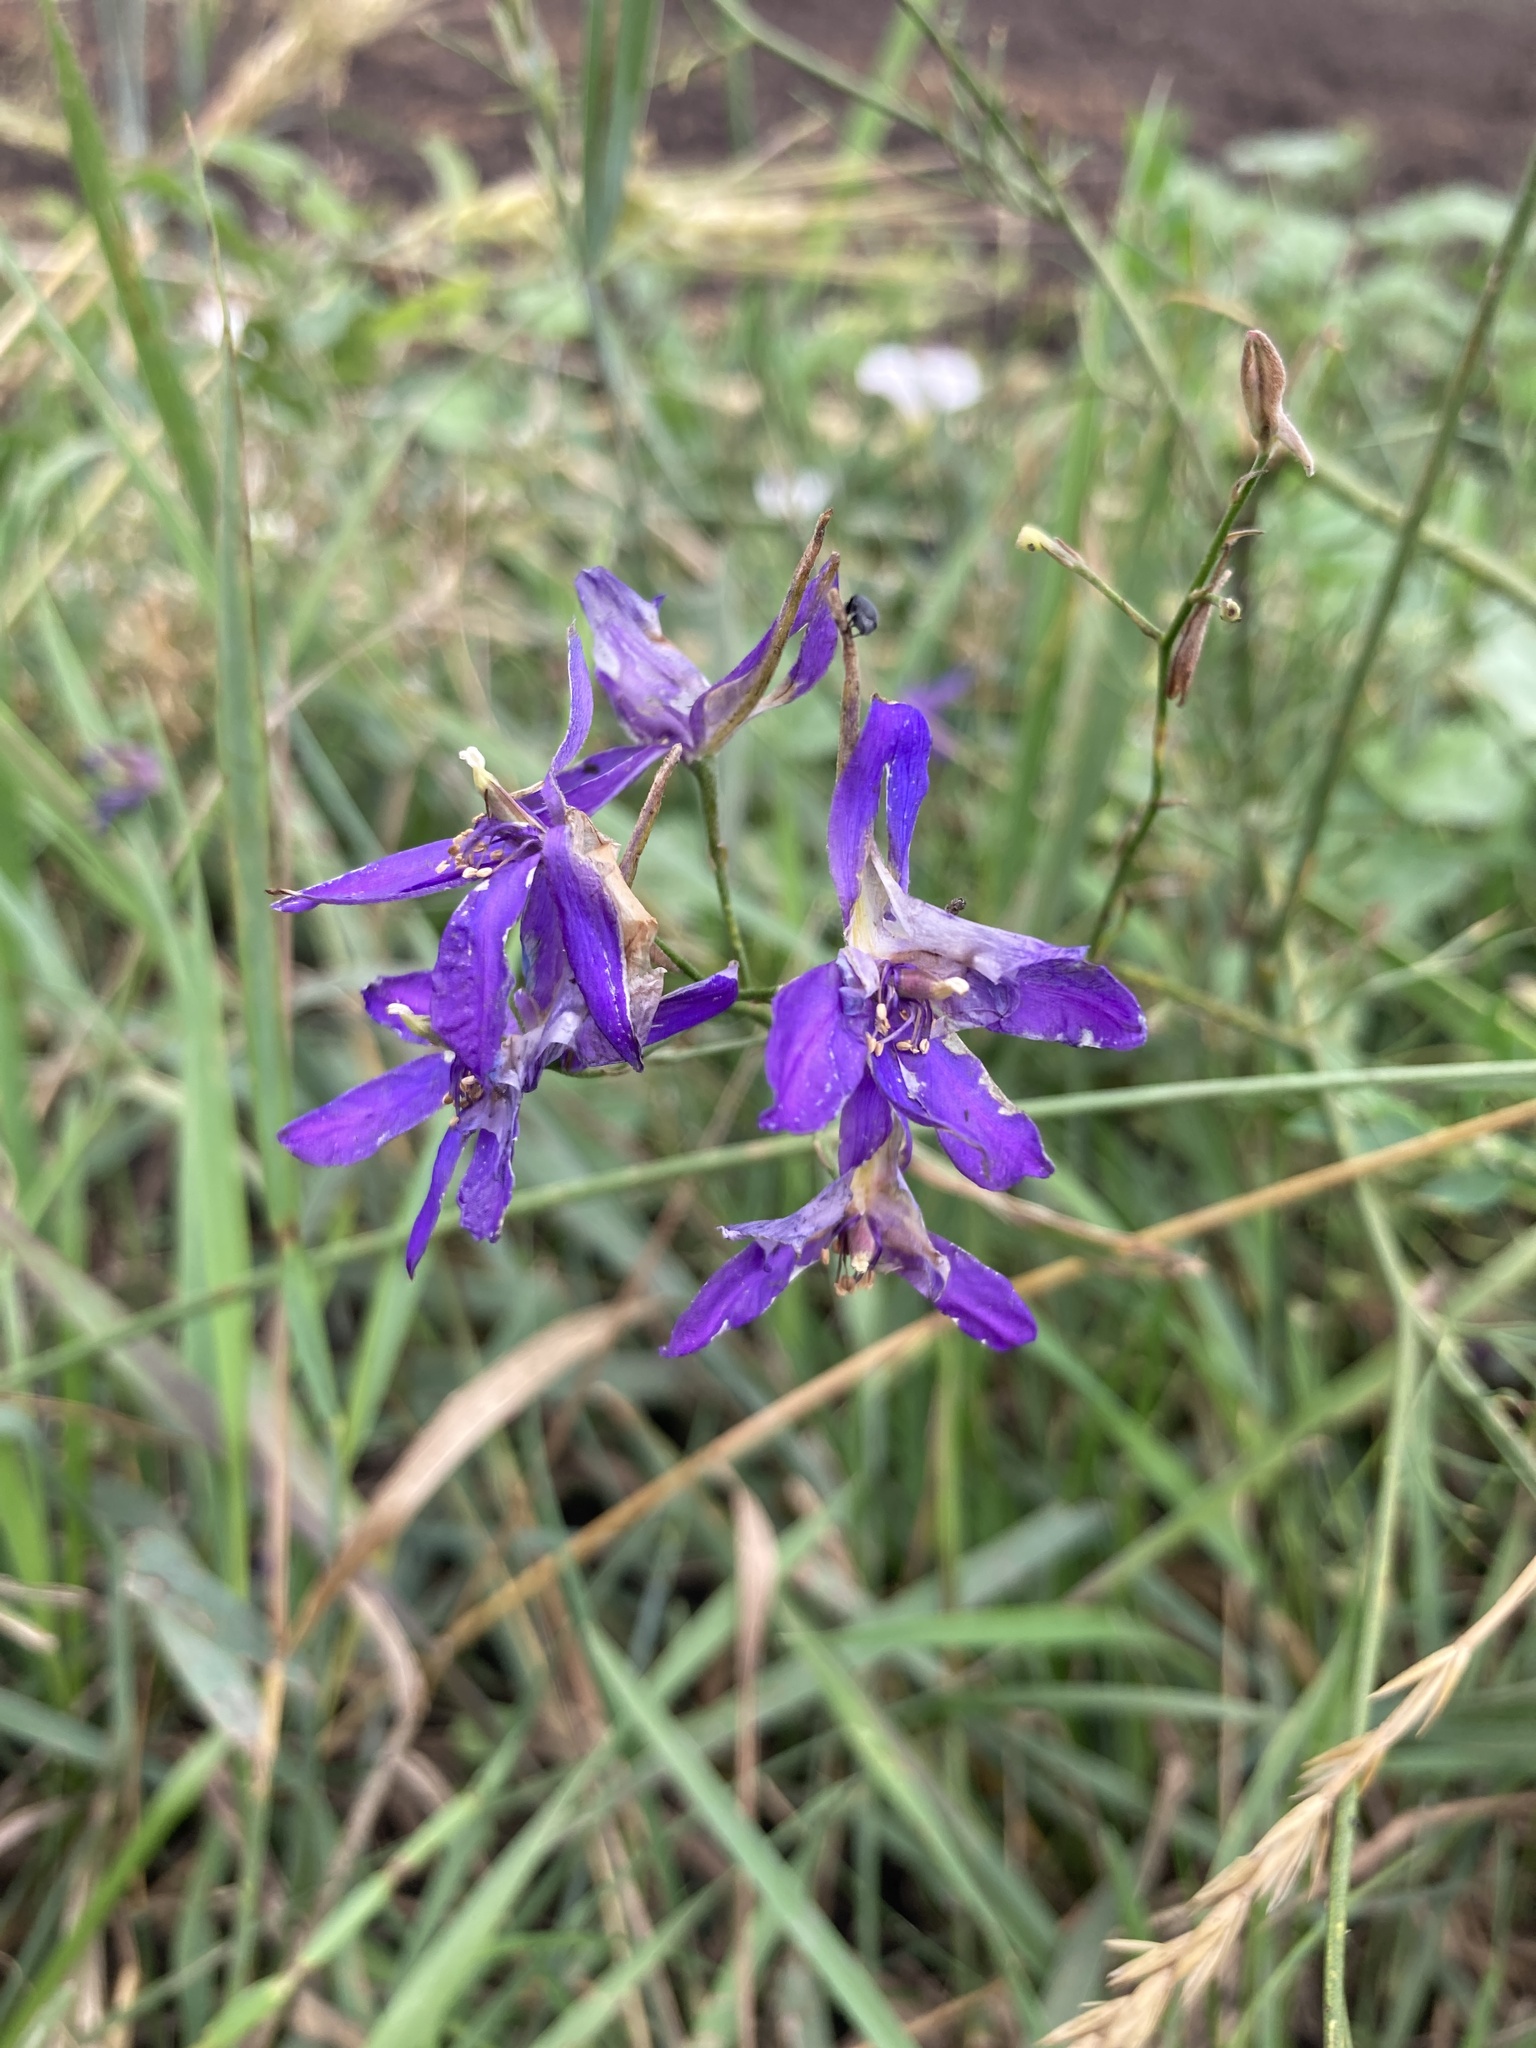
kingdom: Plantae
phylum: Tracheophyta
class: Magnoliopsida
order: Ranunculales
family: Ranunculaceae
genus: Delphinium
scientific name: Delphinium consolida
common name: Branching larkspur
